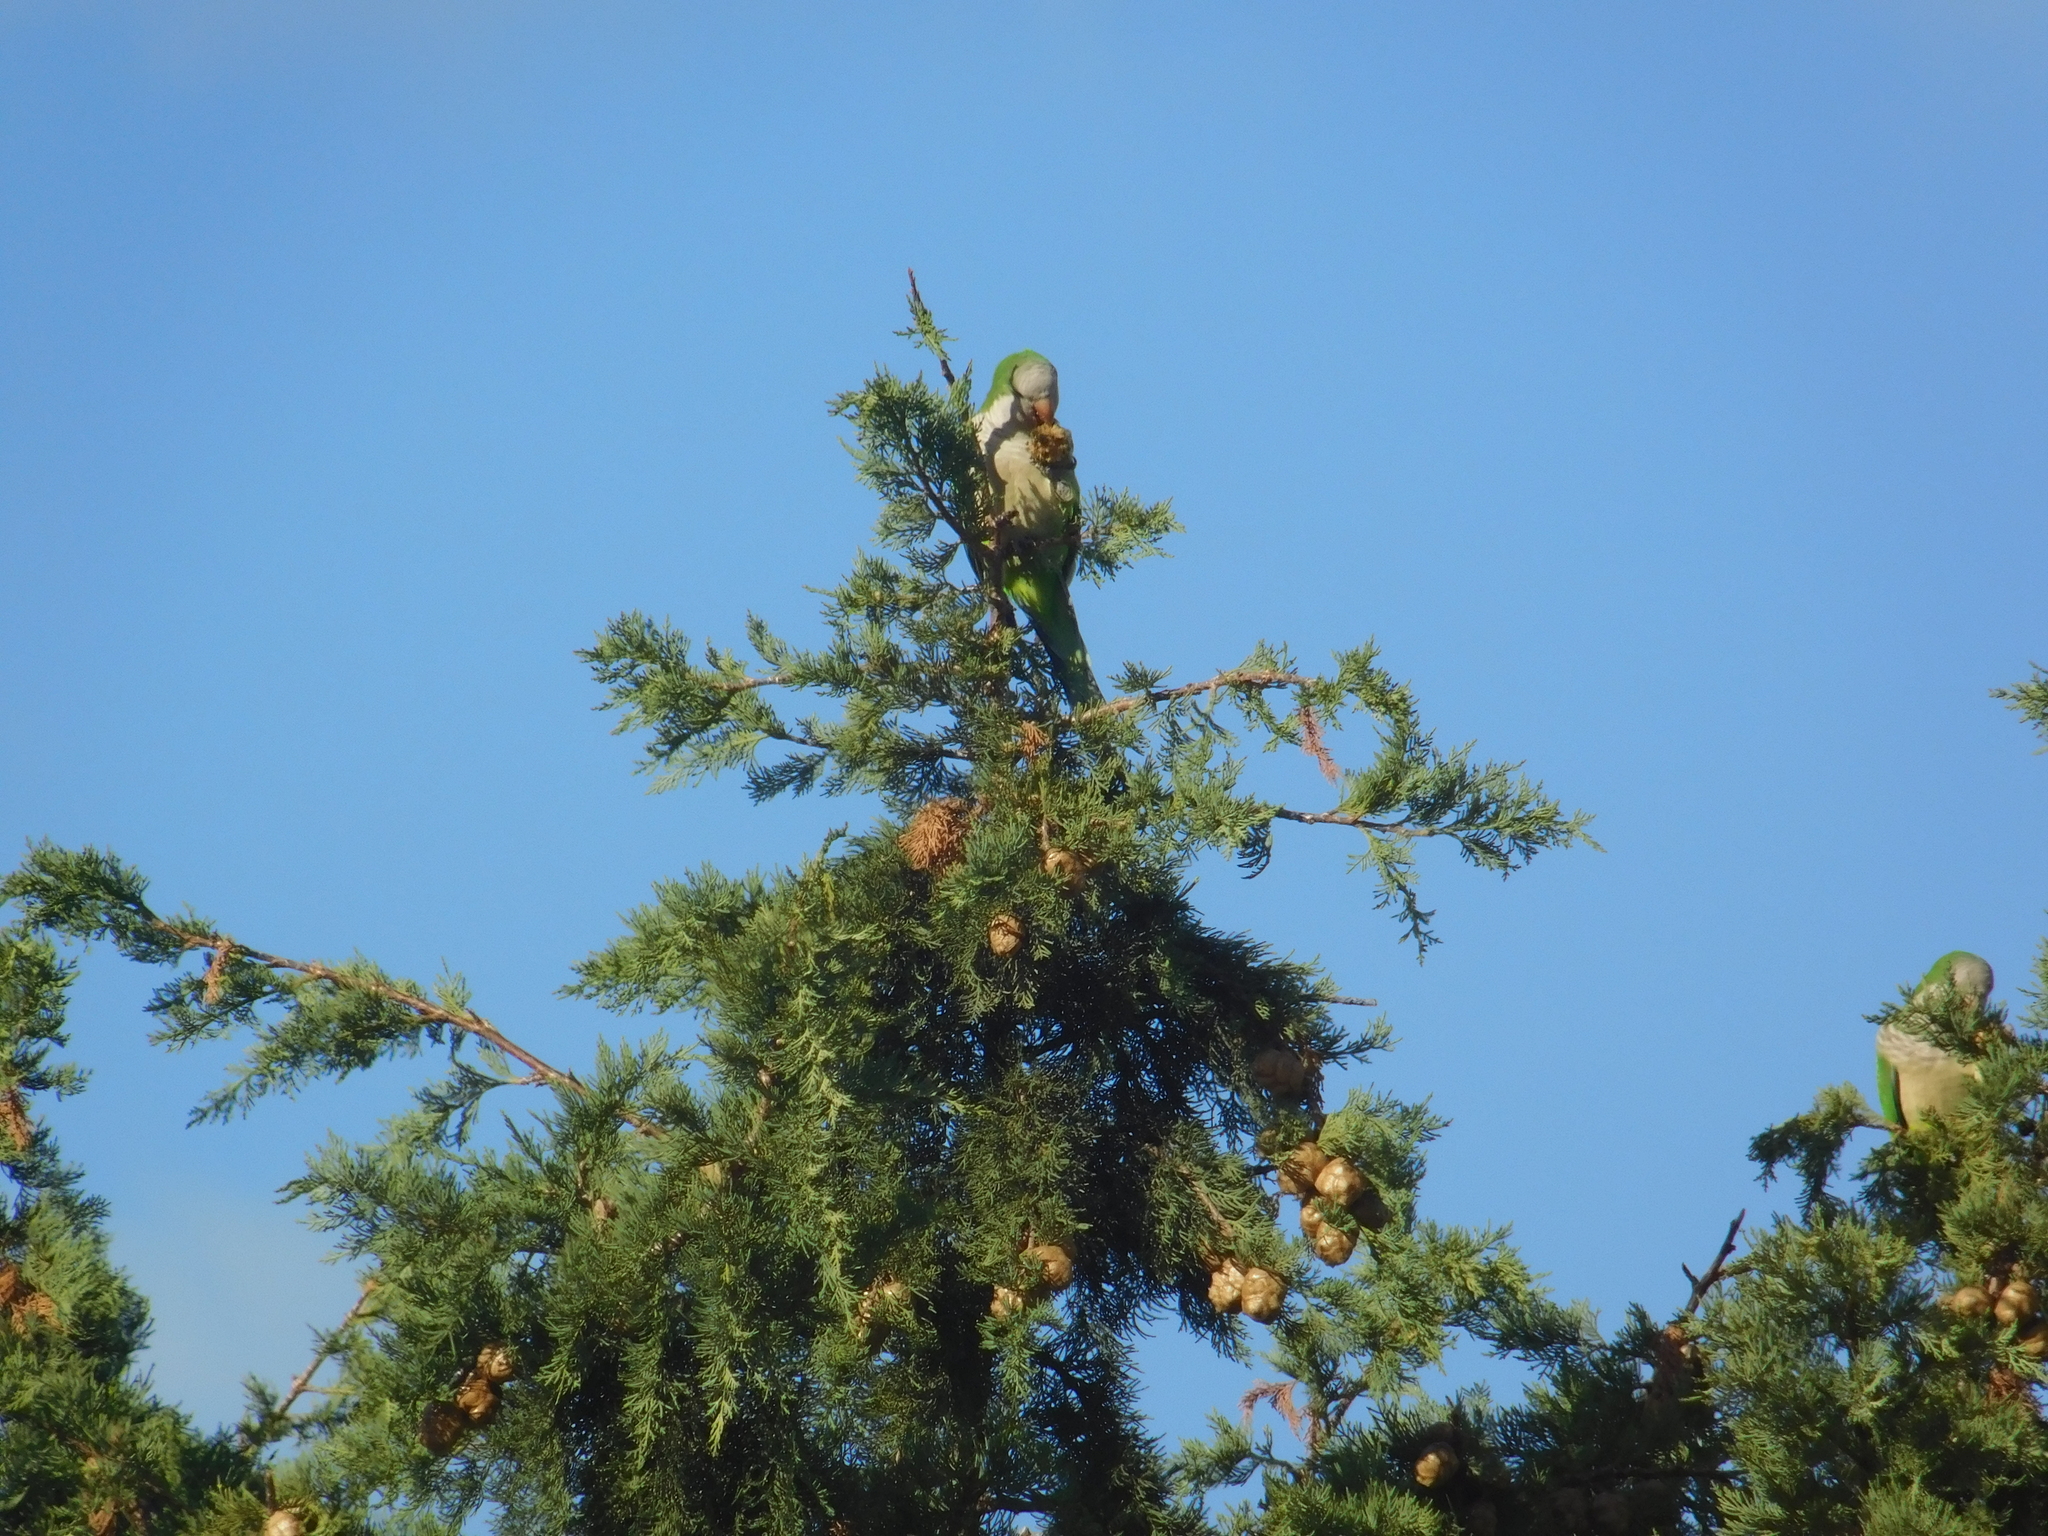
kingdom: Animalia
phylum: Chordata
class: Aves
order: Psittaciformes
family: Psittacidae
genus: Myiopsitta
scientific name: Myiopsitta monachus
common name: Monk parakeet
